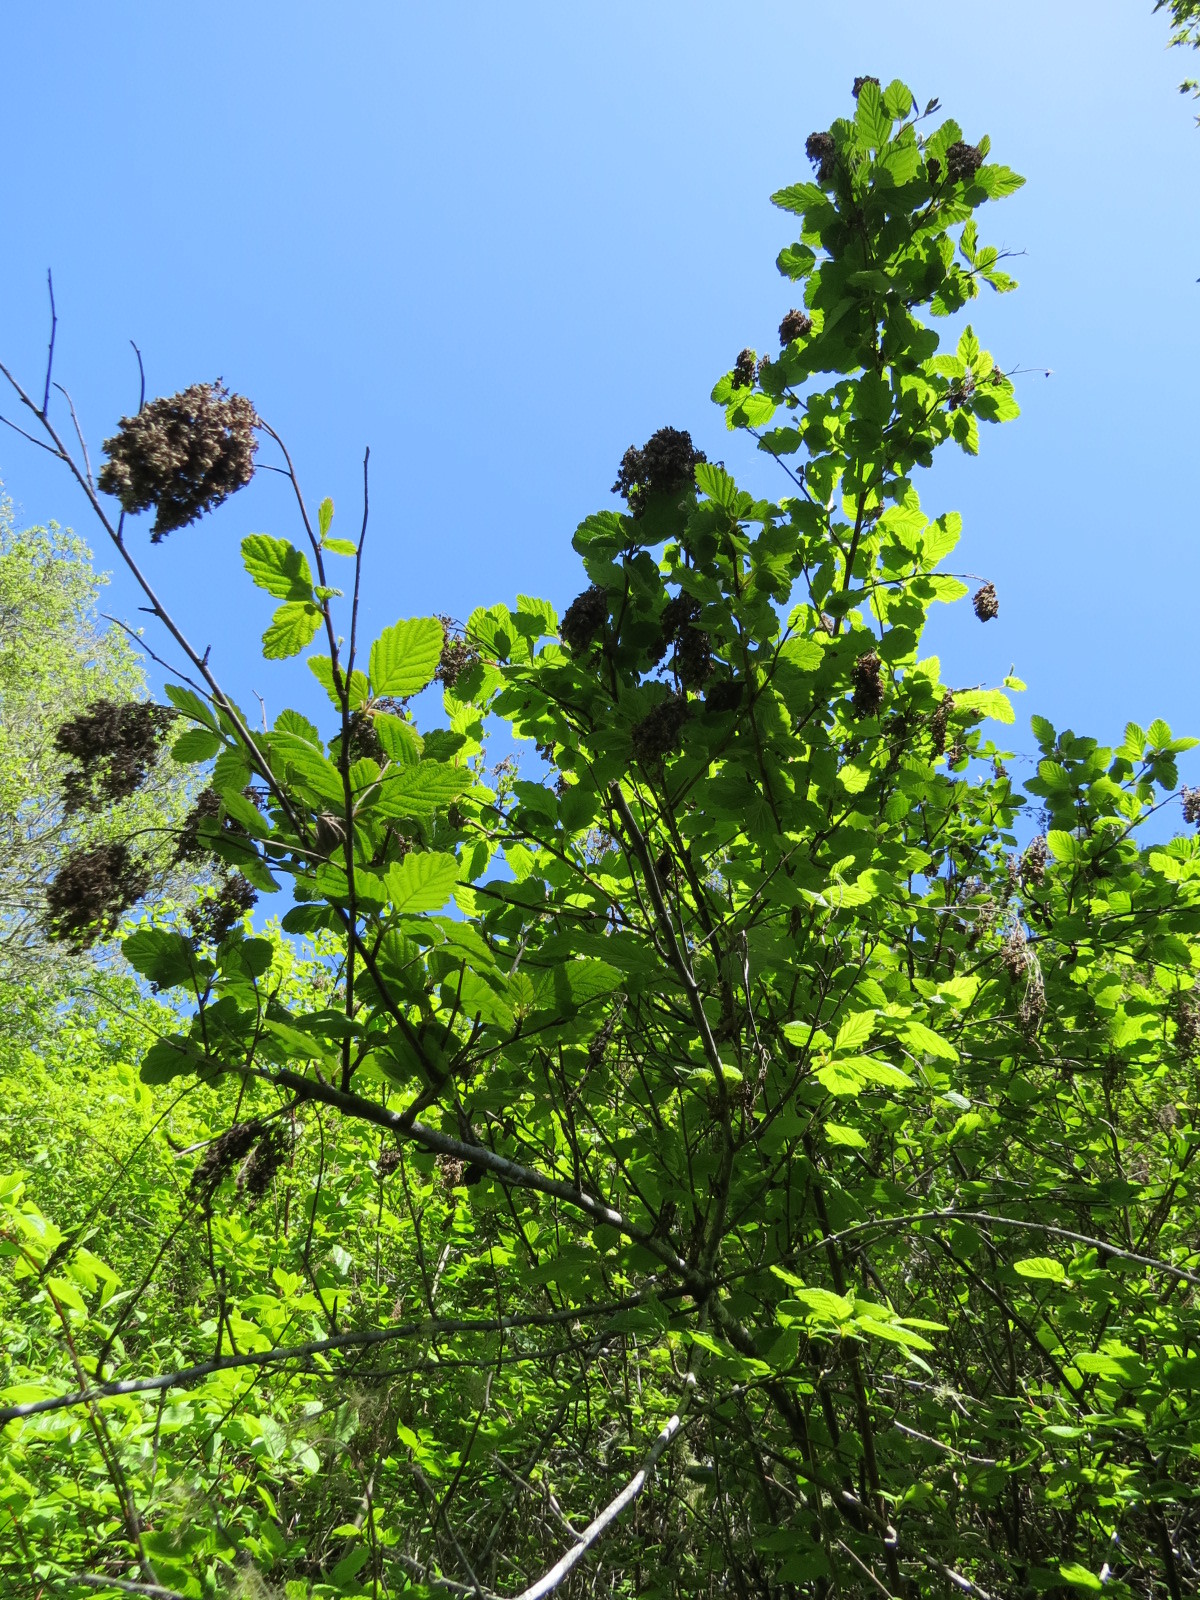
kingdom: Plantae
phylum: Tracheophyta
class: Magnoliopsida
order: Rosales
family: Rosaceae
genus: Holodiscus
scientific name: Holodiscus discolor
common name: Oceanspray
